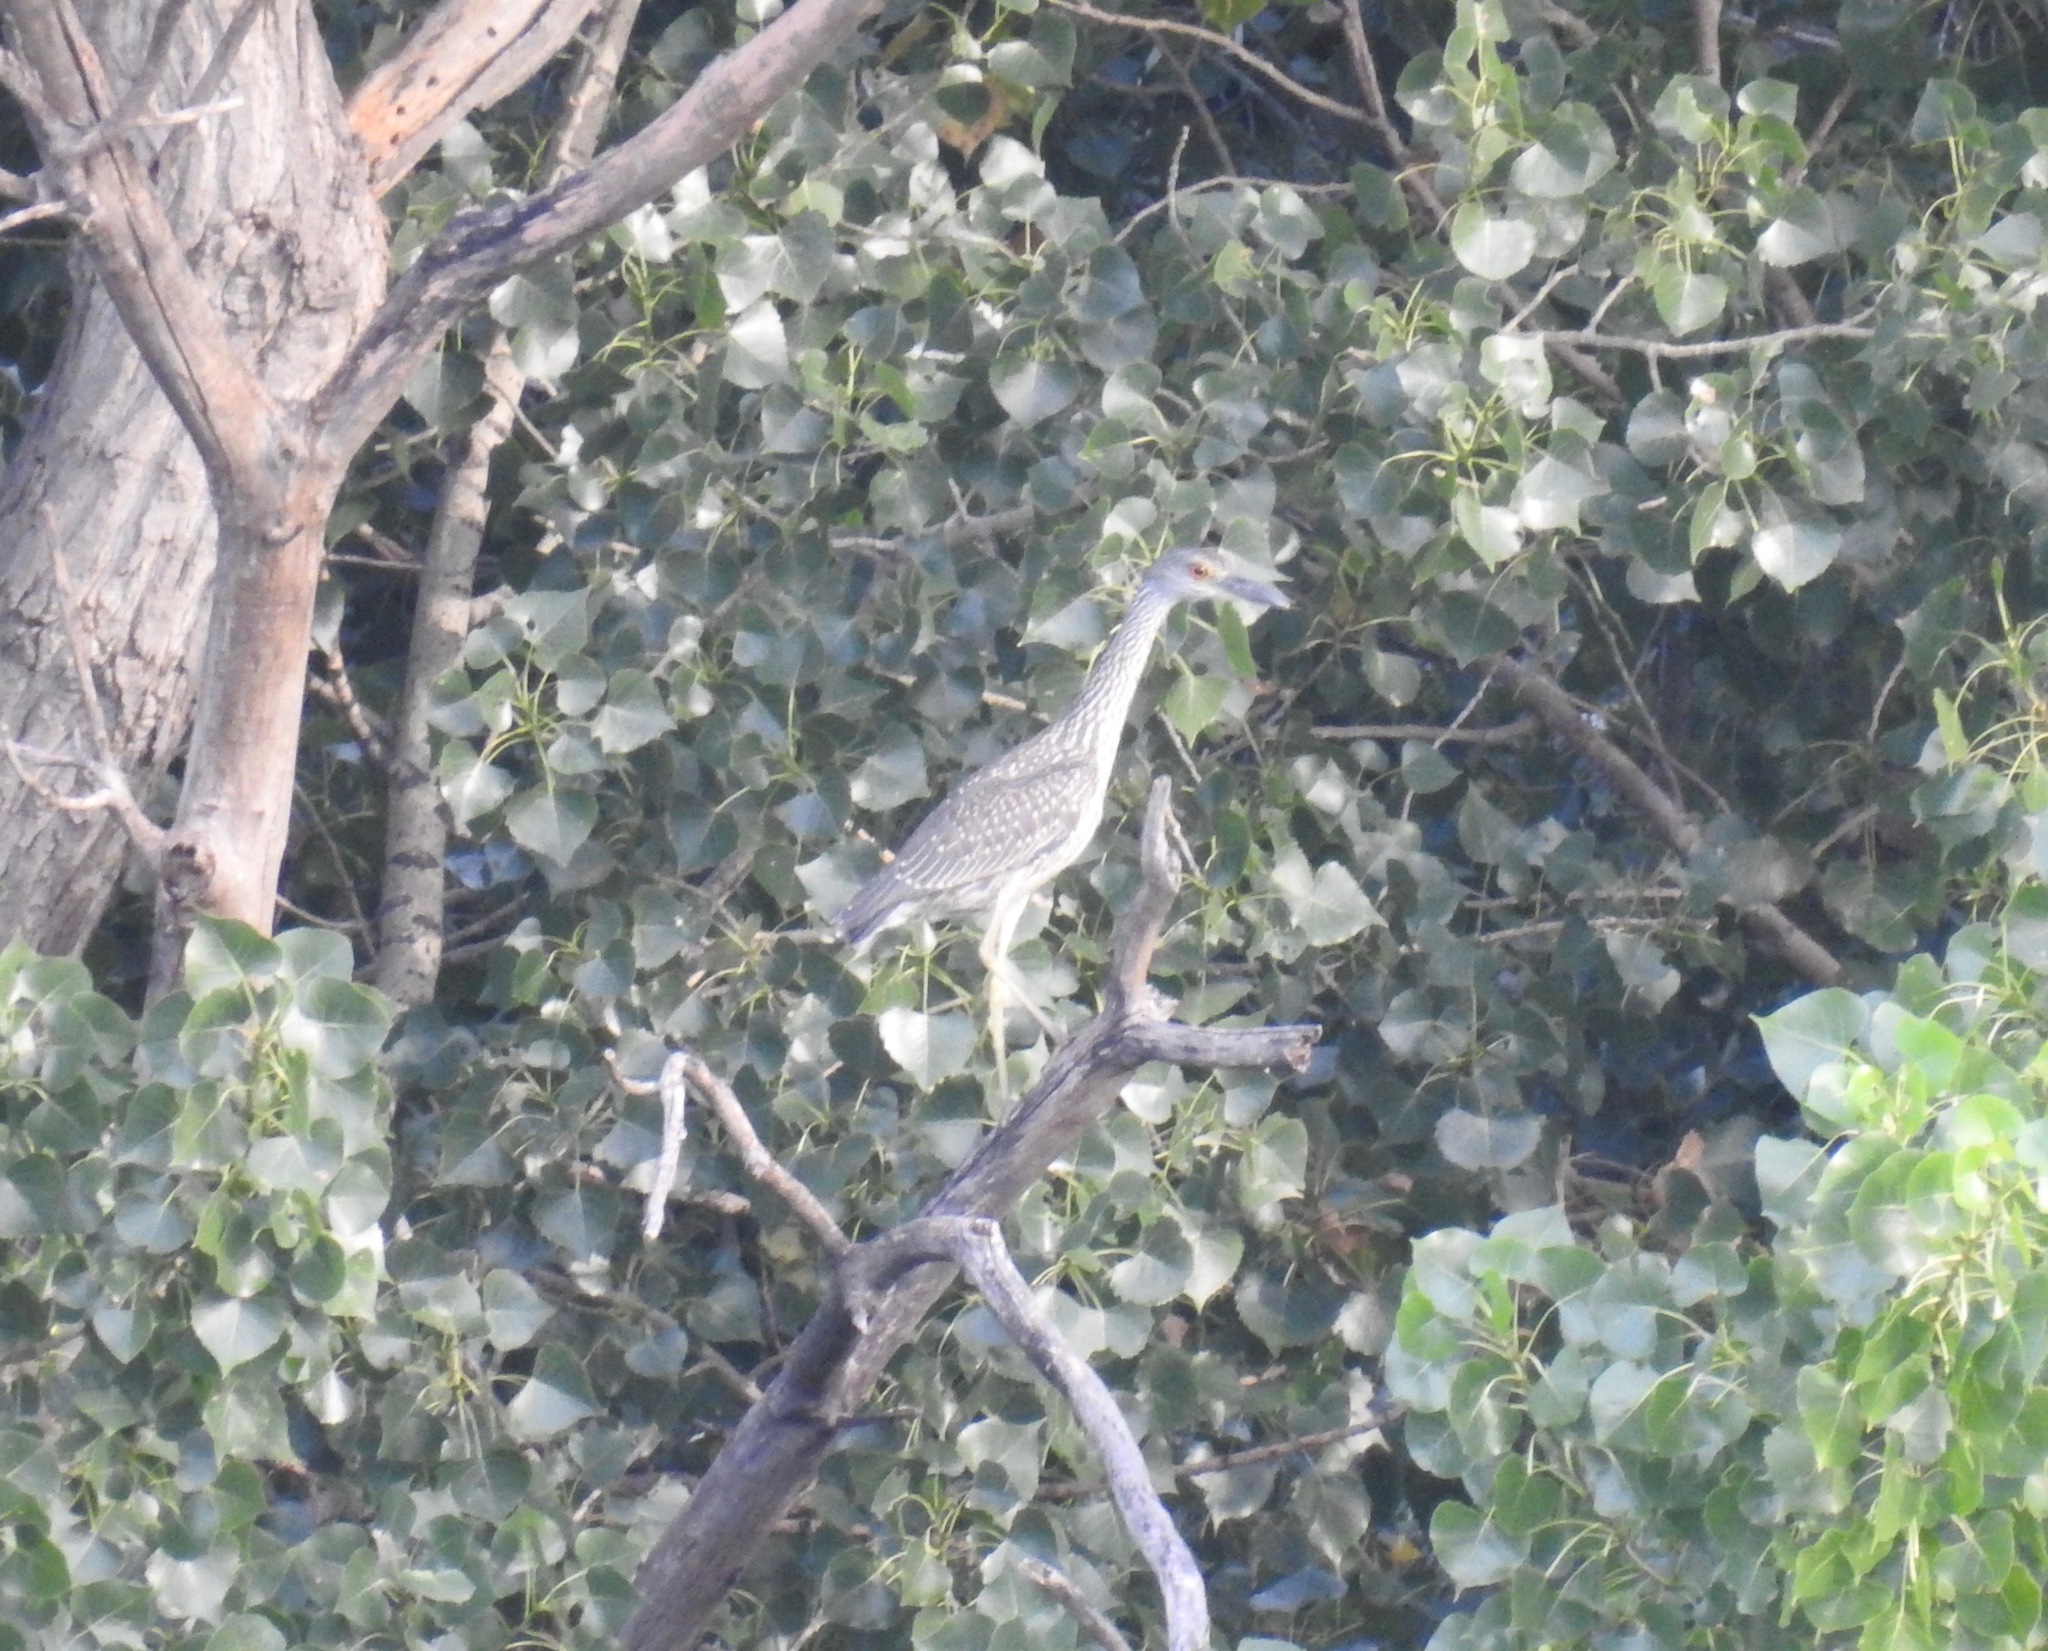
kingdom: Animalia
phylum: Chordata
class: Aves
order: Pelecaniformes
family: Ardeidae
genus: Nyctanassa
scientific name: Nyctanassa violacea
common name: Yellow-crowned night heron
